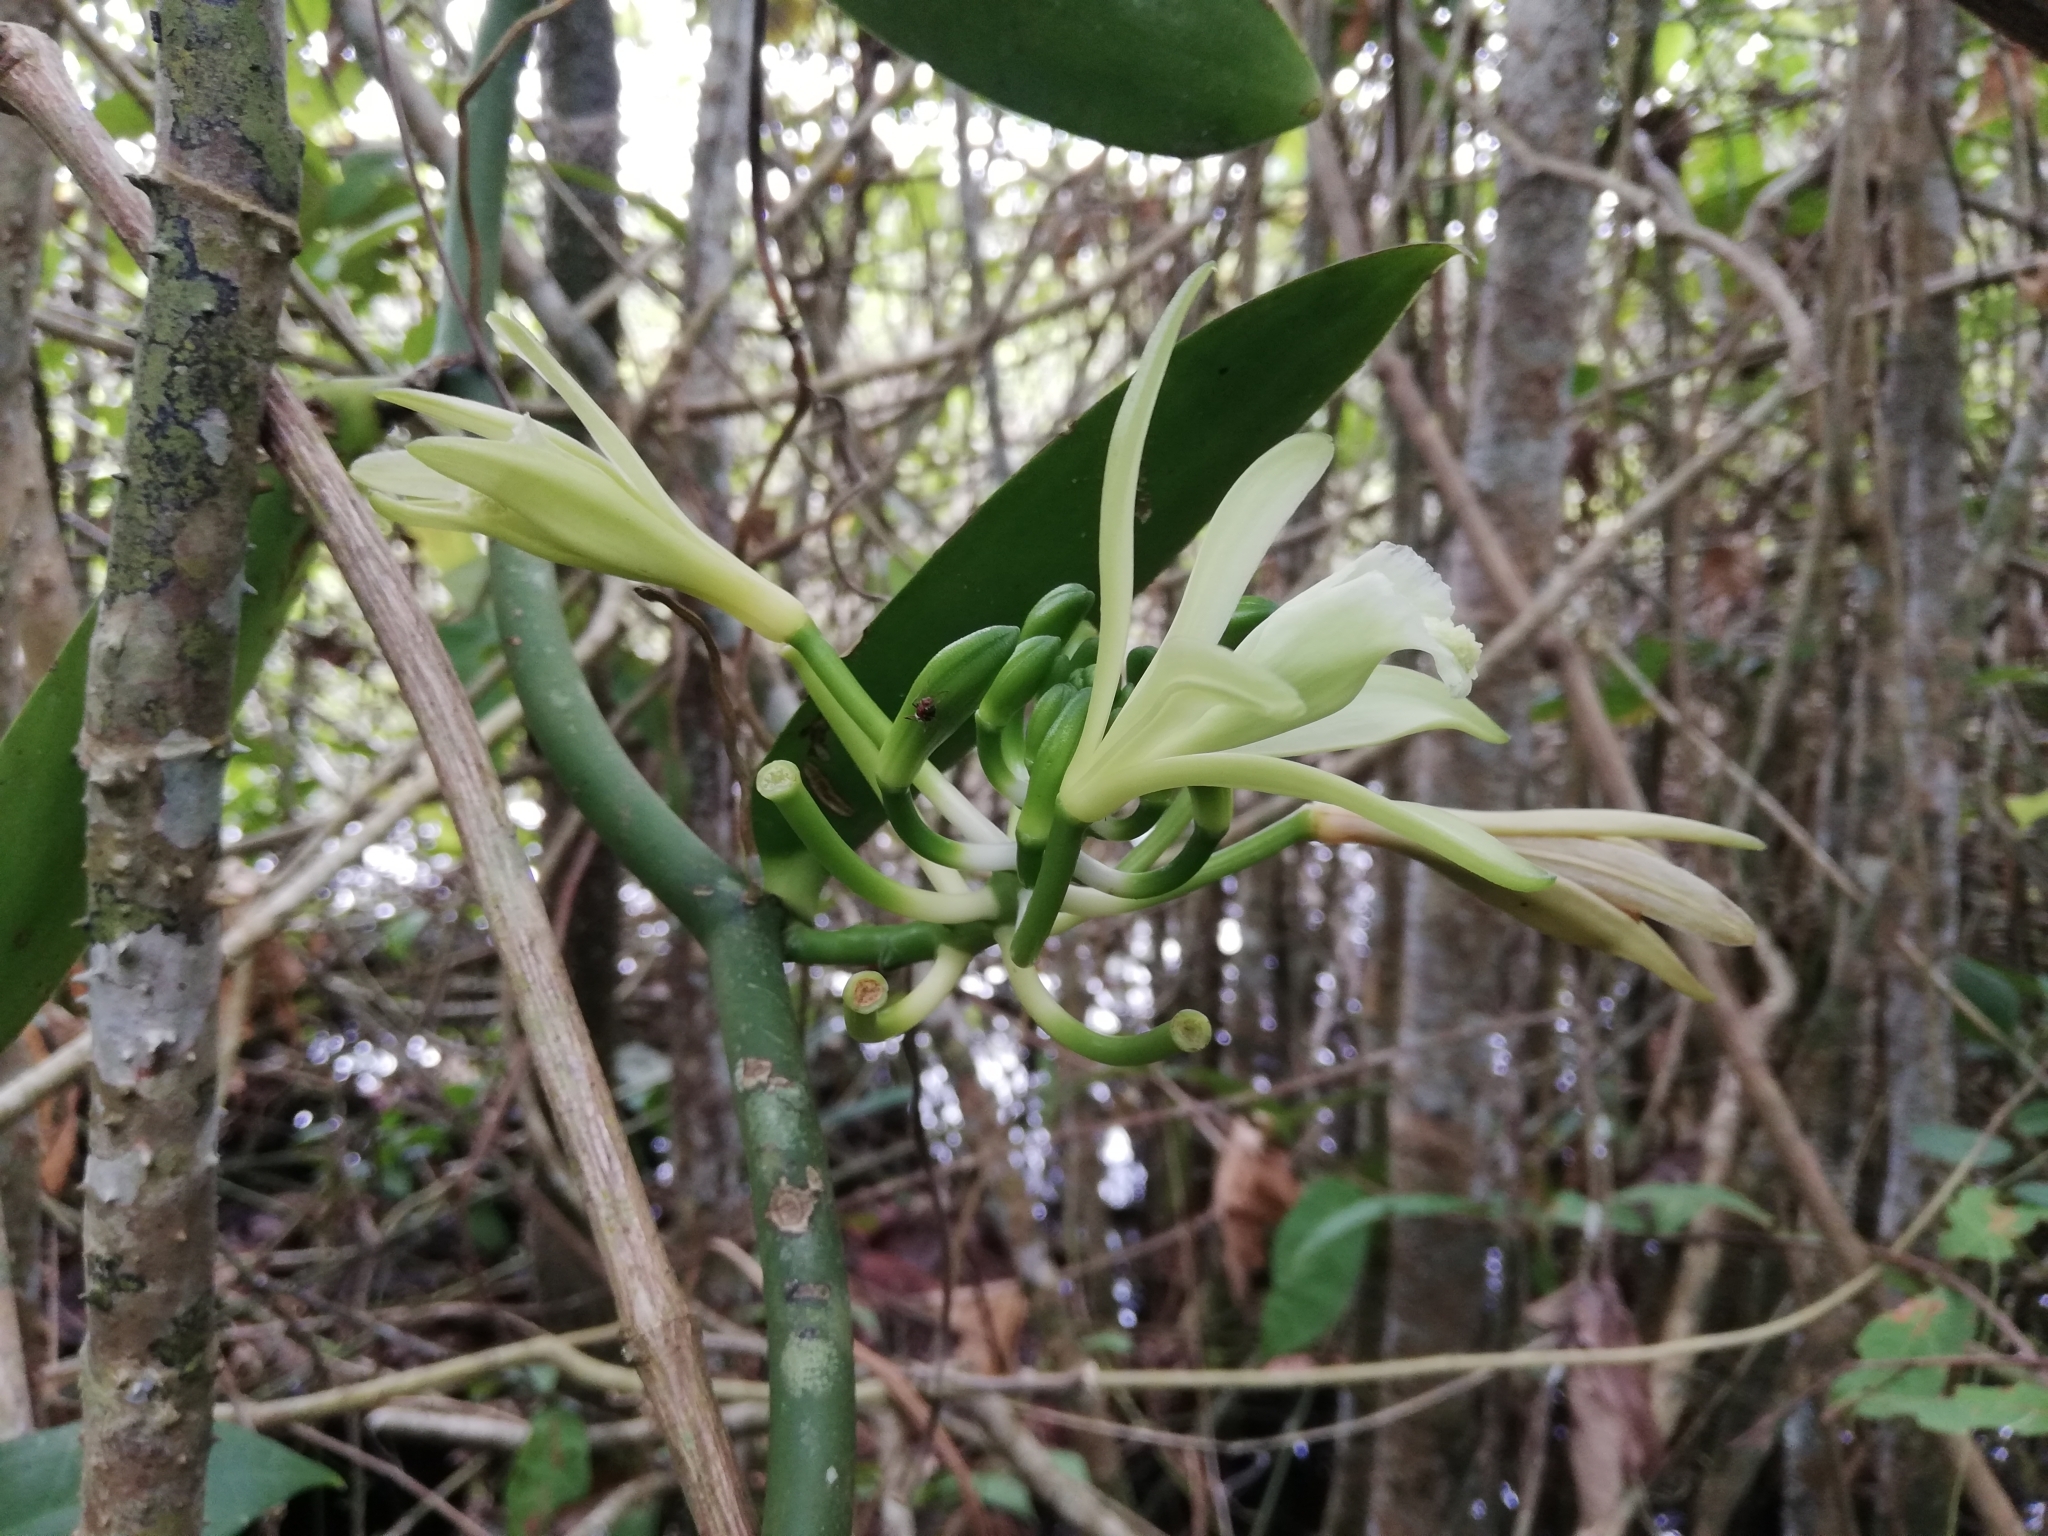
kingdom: Plantae
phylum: Tracheophyta
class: Liliopsida
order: Asparagales
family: Orchidaceae
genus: Vanilla
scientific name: Vanilla planifolia
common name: Vanilla
